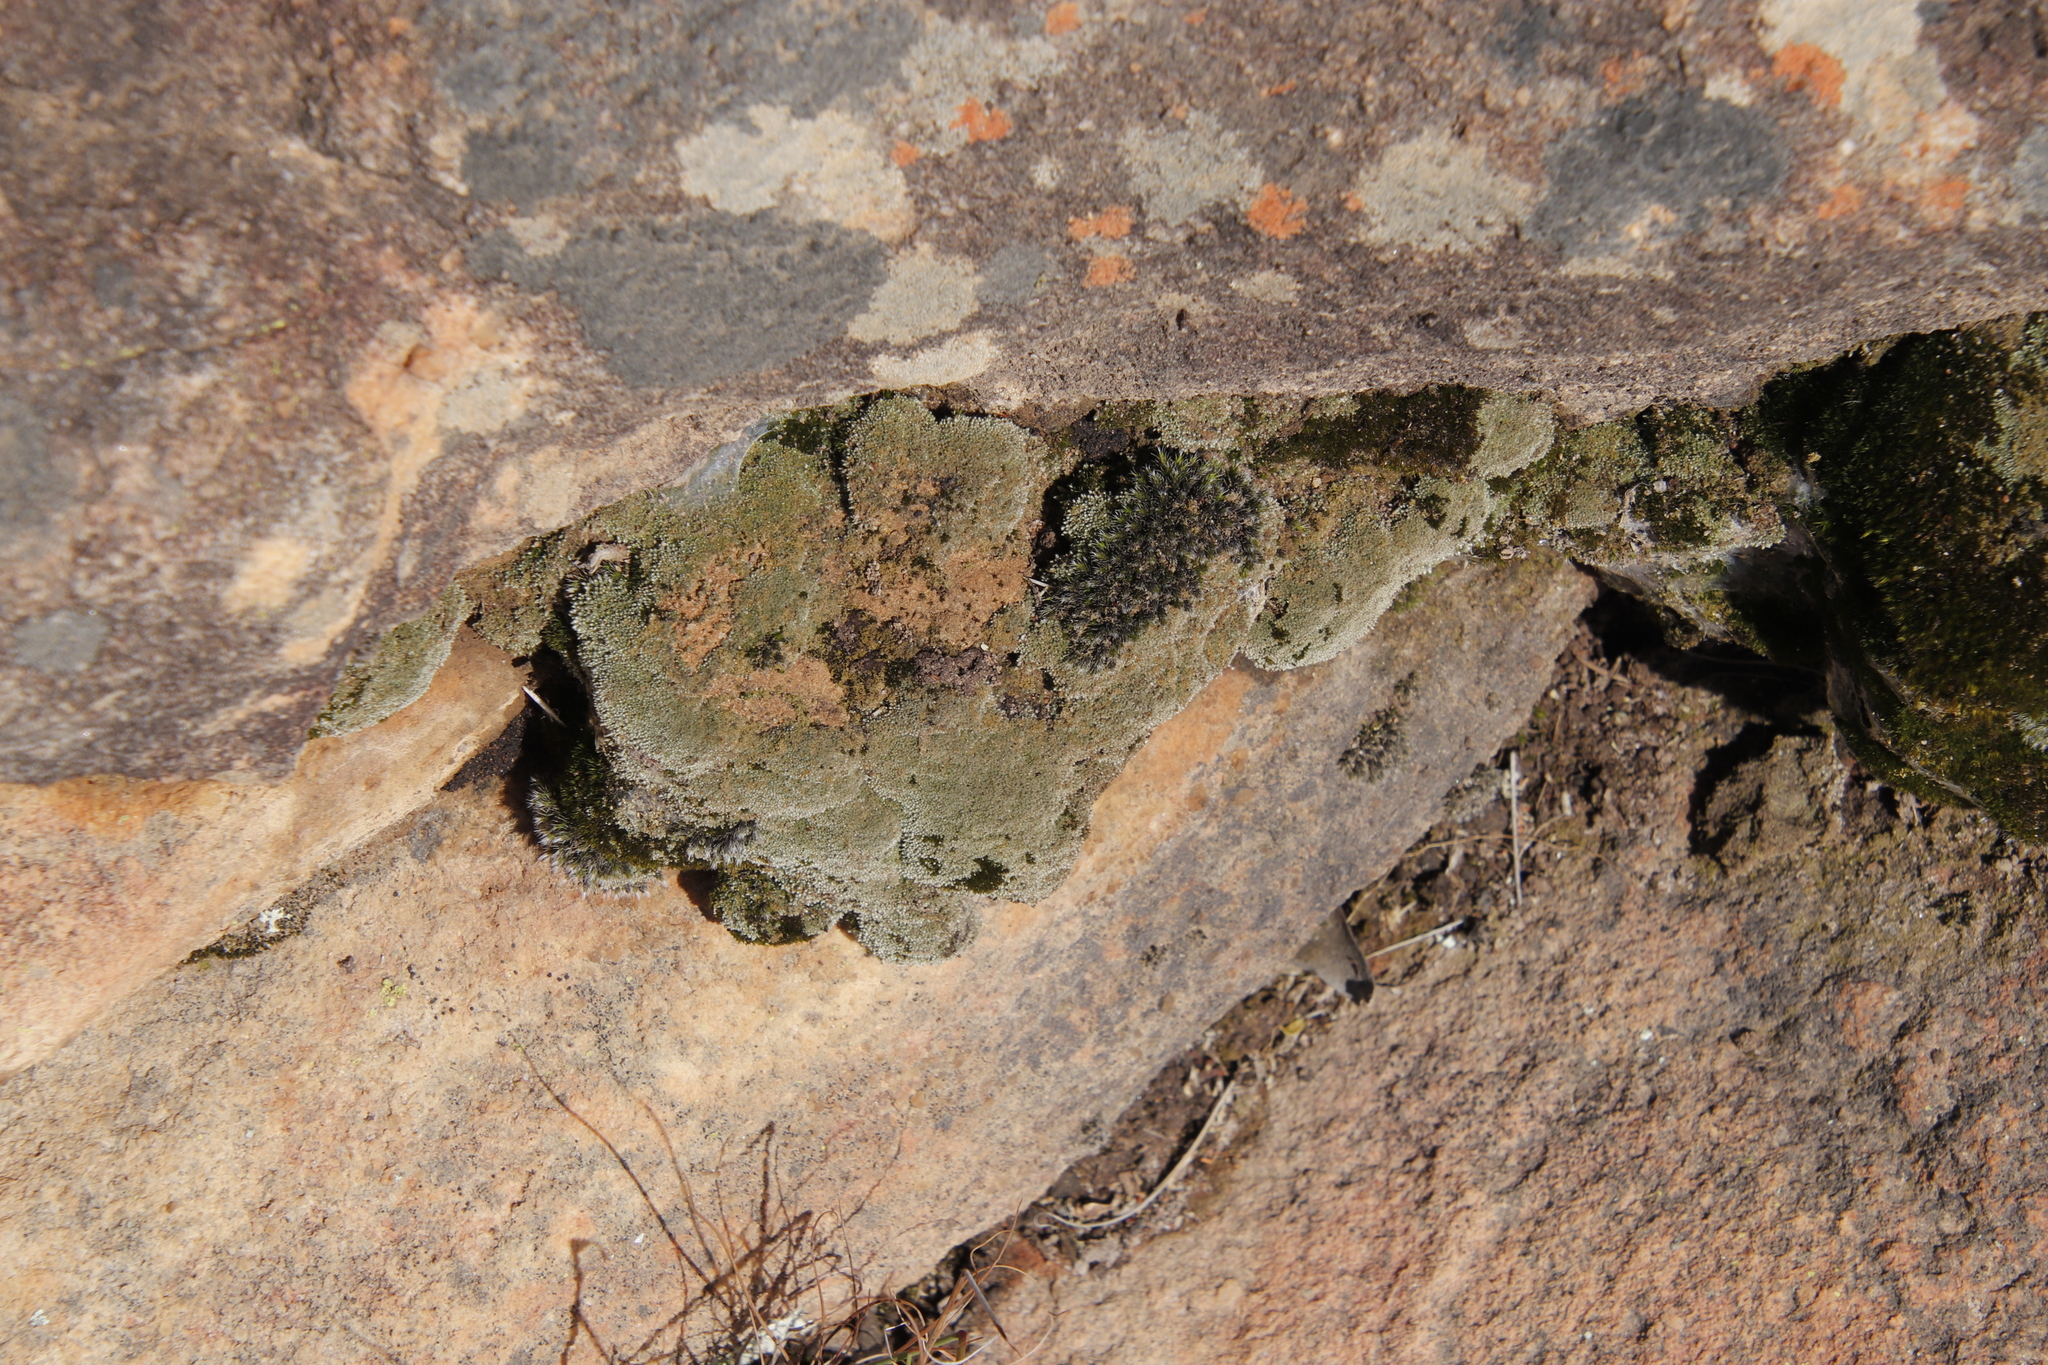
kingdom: Plantae
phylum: Bryophyta
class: Bryopsida
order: Bryales
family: Bryaceae
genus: Bryum
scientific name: Bryum argenteum
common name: Silver-moss
